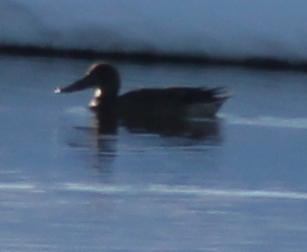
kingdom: Animalia
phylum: Chordata
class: Aves
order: Anseriformes
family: Anatidae
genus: Spatula
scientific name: Spatula clypeata
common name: Northern shoveler
